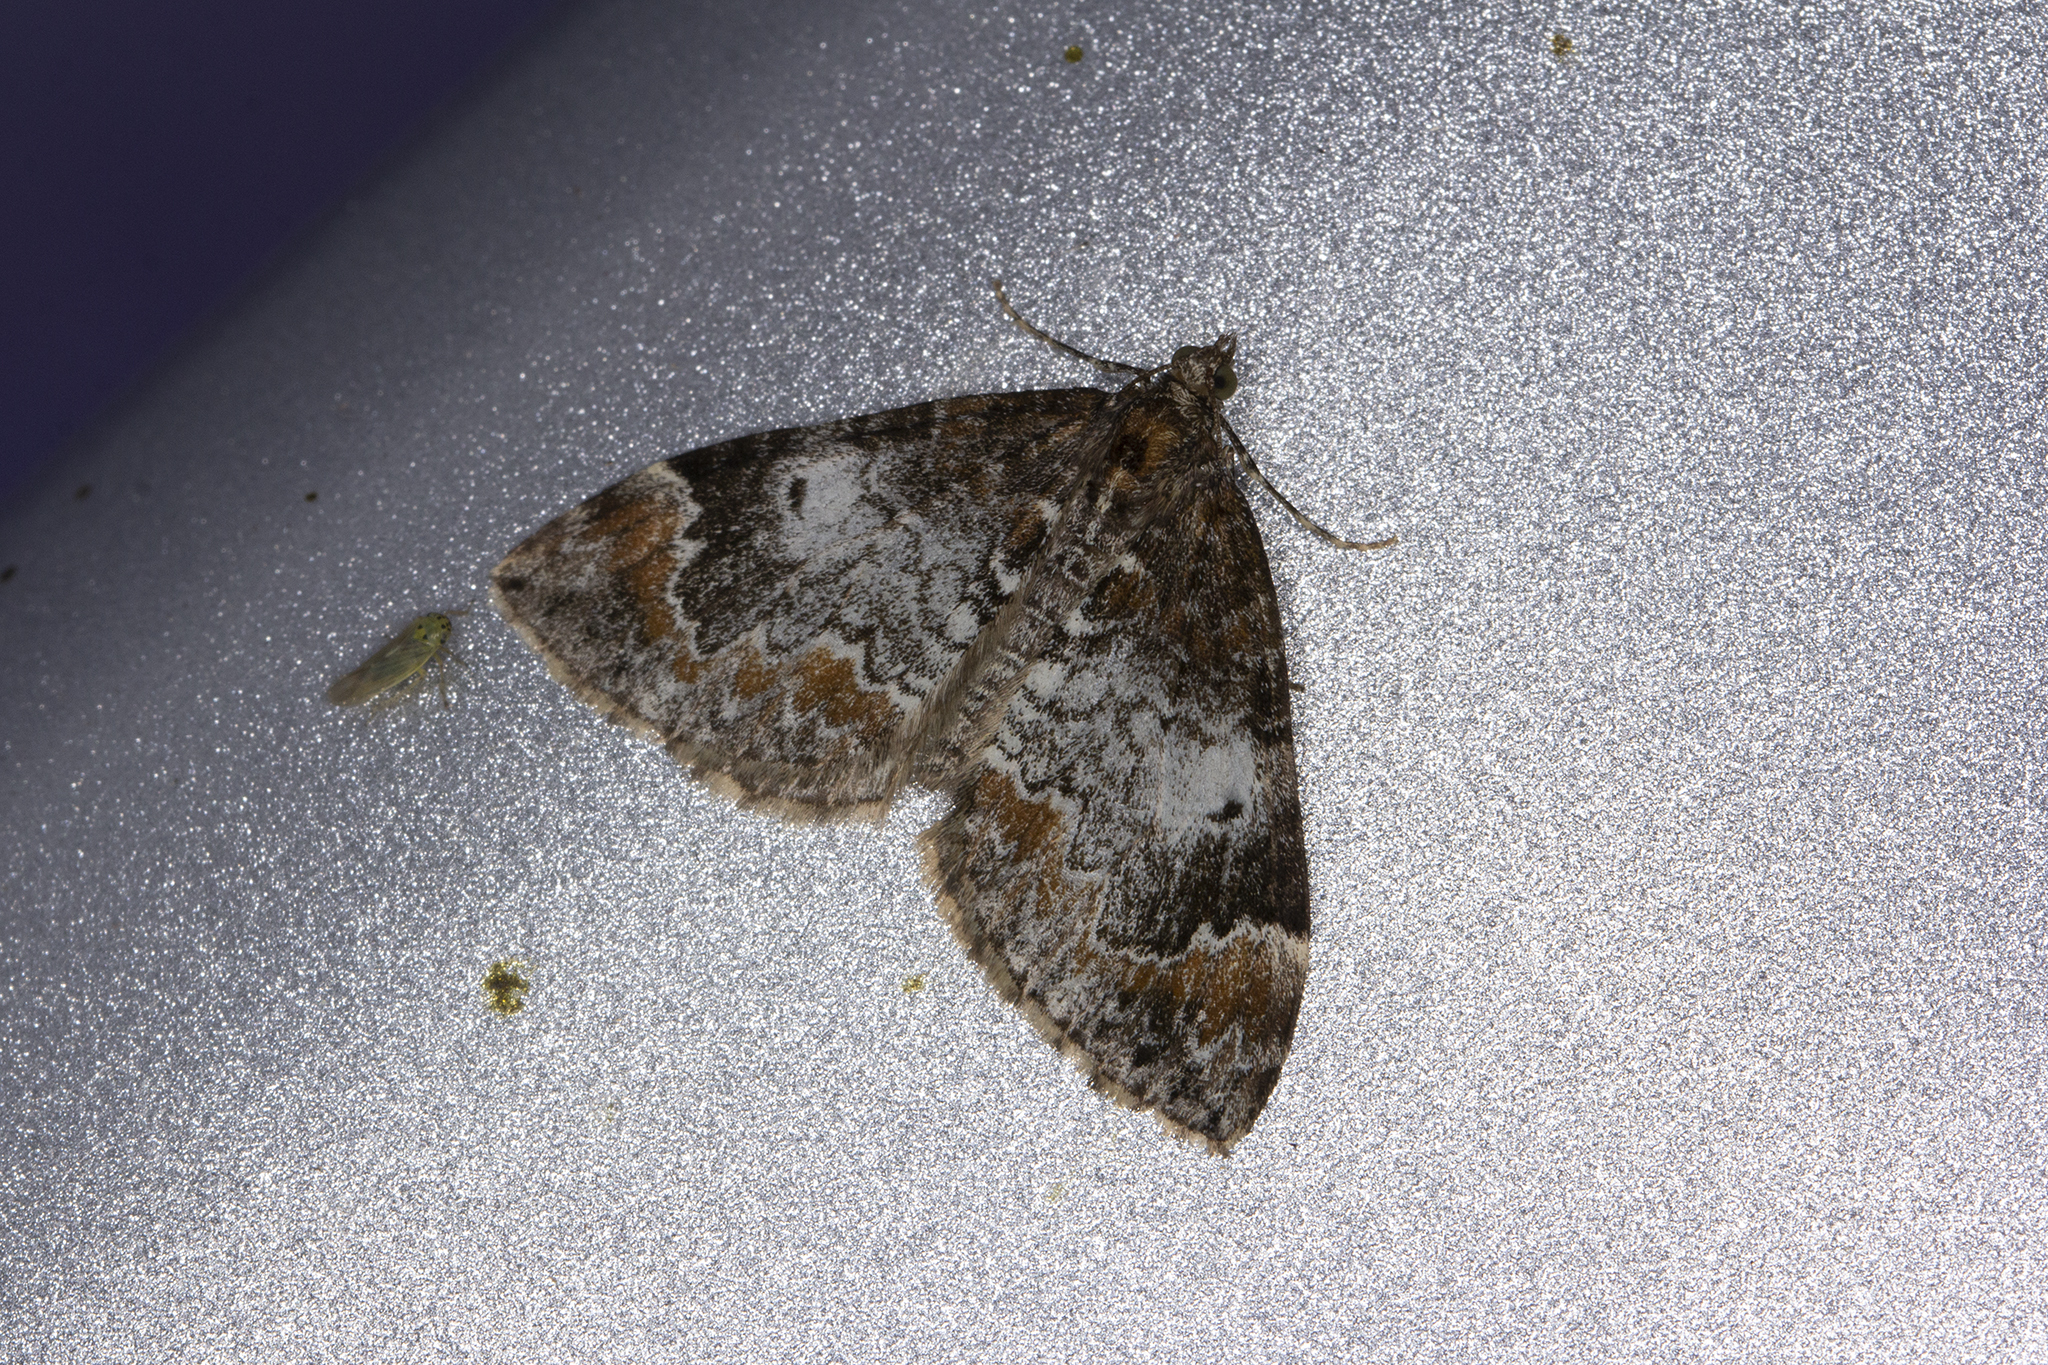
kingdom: Animalia
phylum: Arthropoda
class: Insecta
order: Lepidoptera
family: Geometridae
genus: Dysstroma
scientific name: Dysstroma truncata
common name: Common marbled carpet
